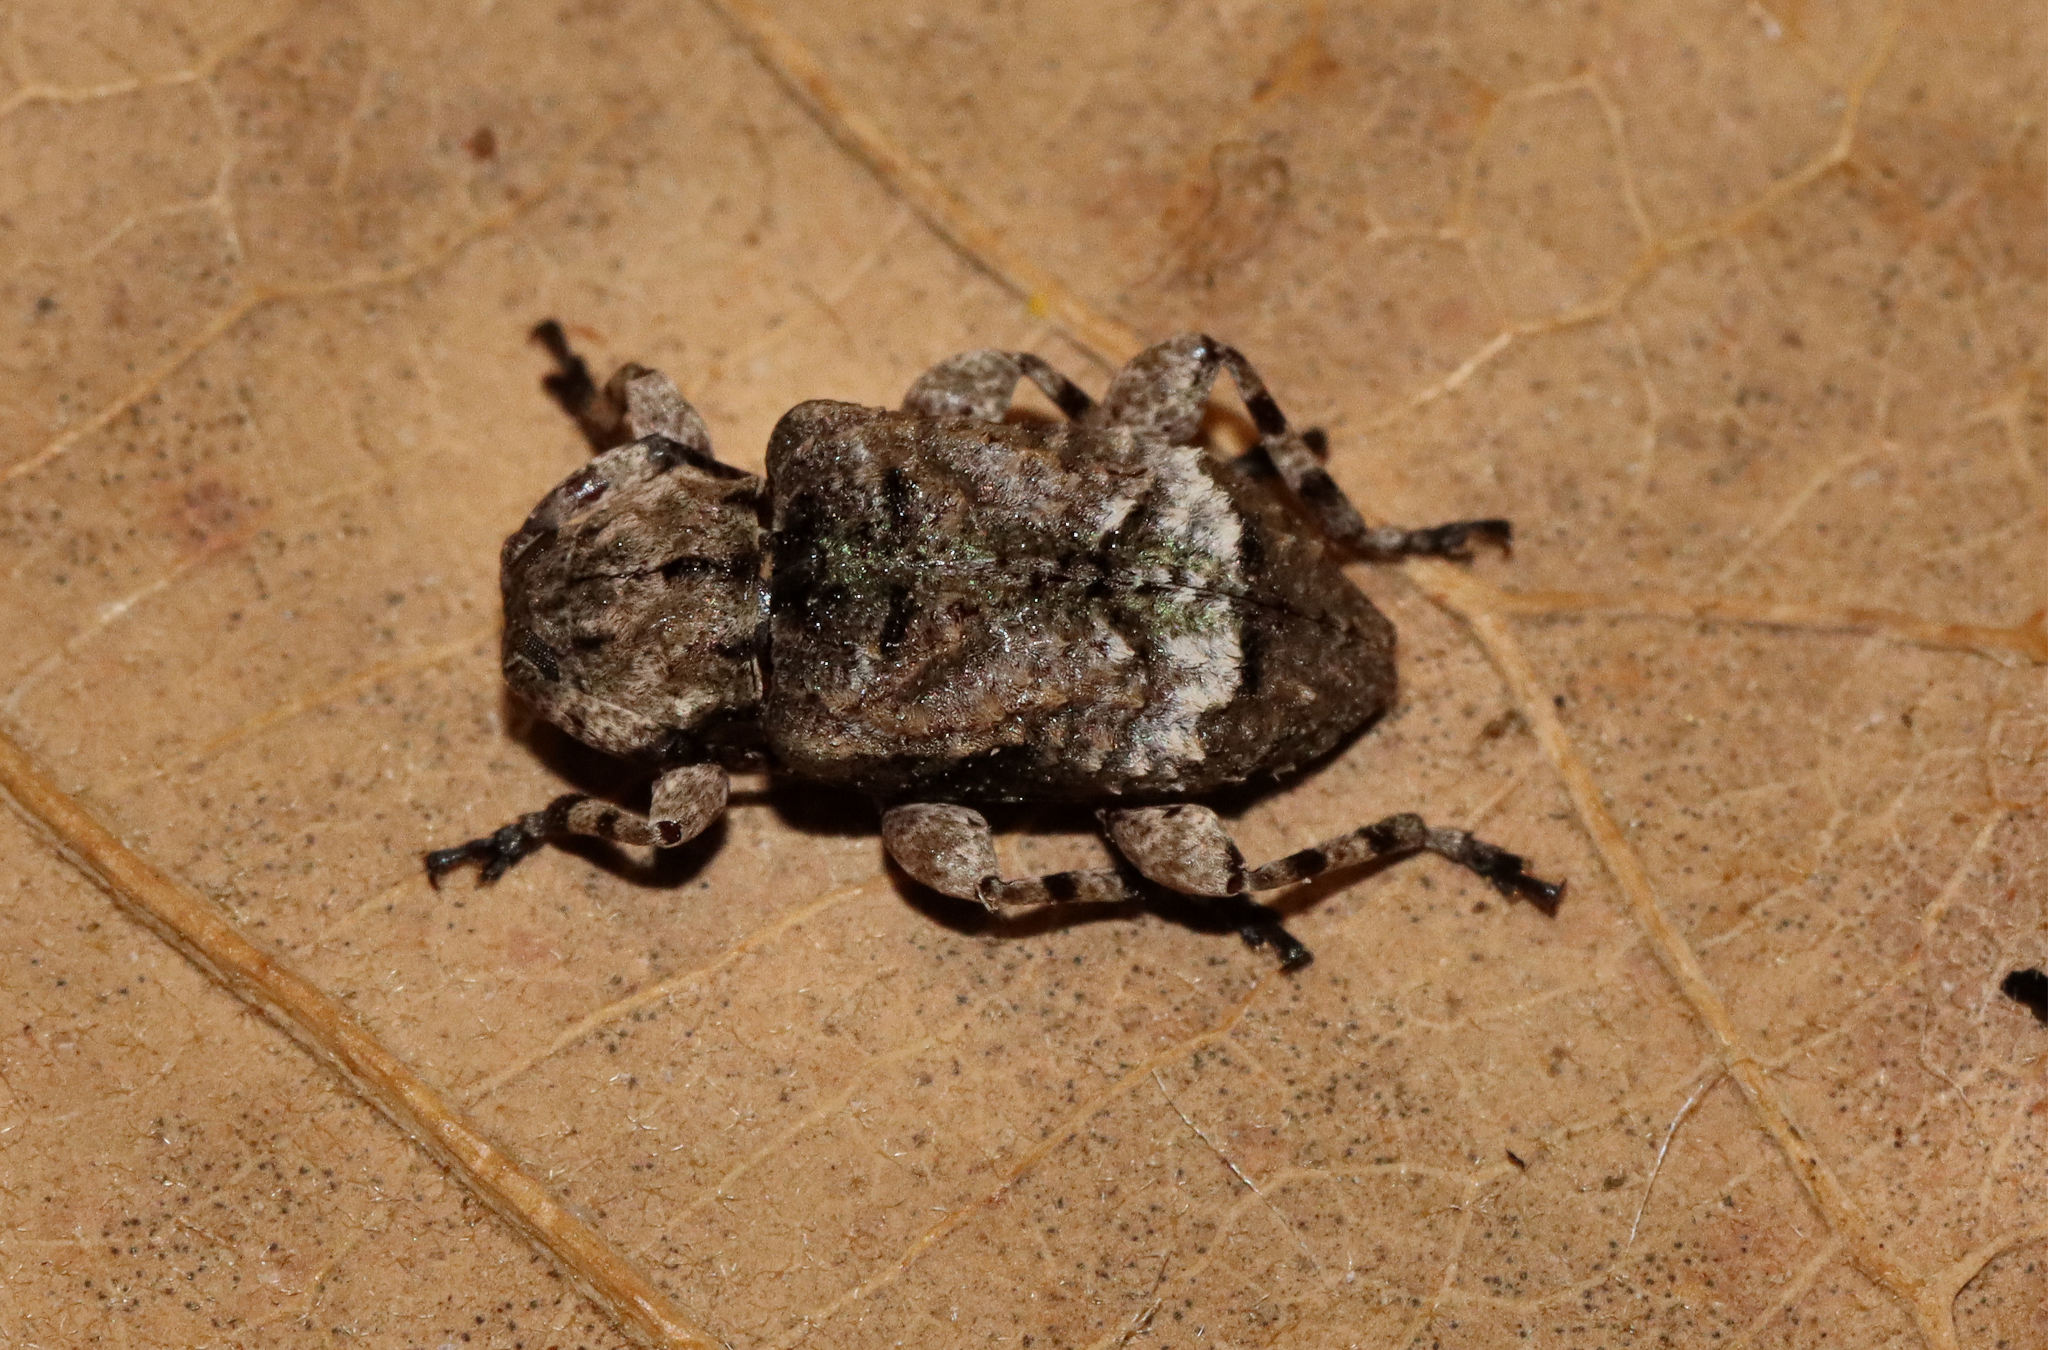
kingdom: Animalia
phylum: Arthropoda
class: Insecta
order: Coleoptera
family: Cerambycidae
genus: Leptostylus
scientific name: Leptostylus transversus
